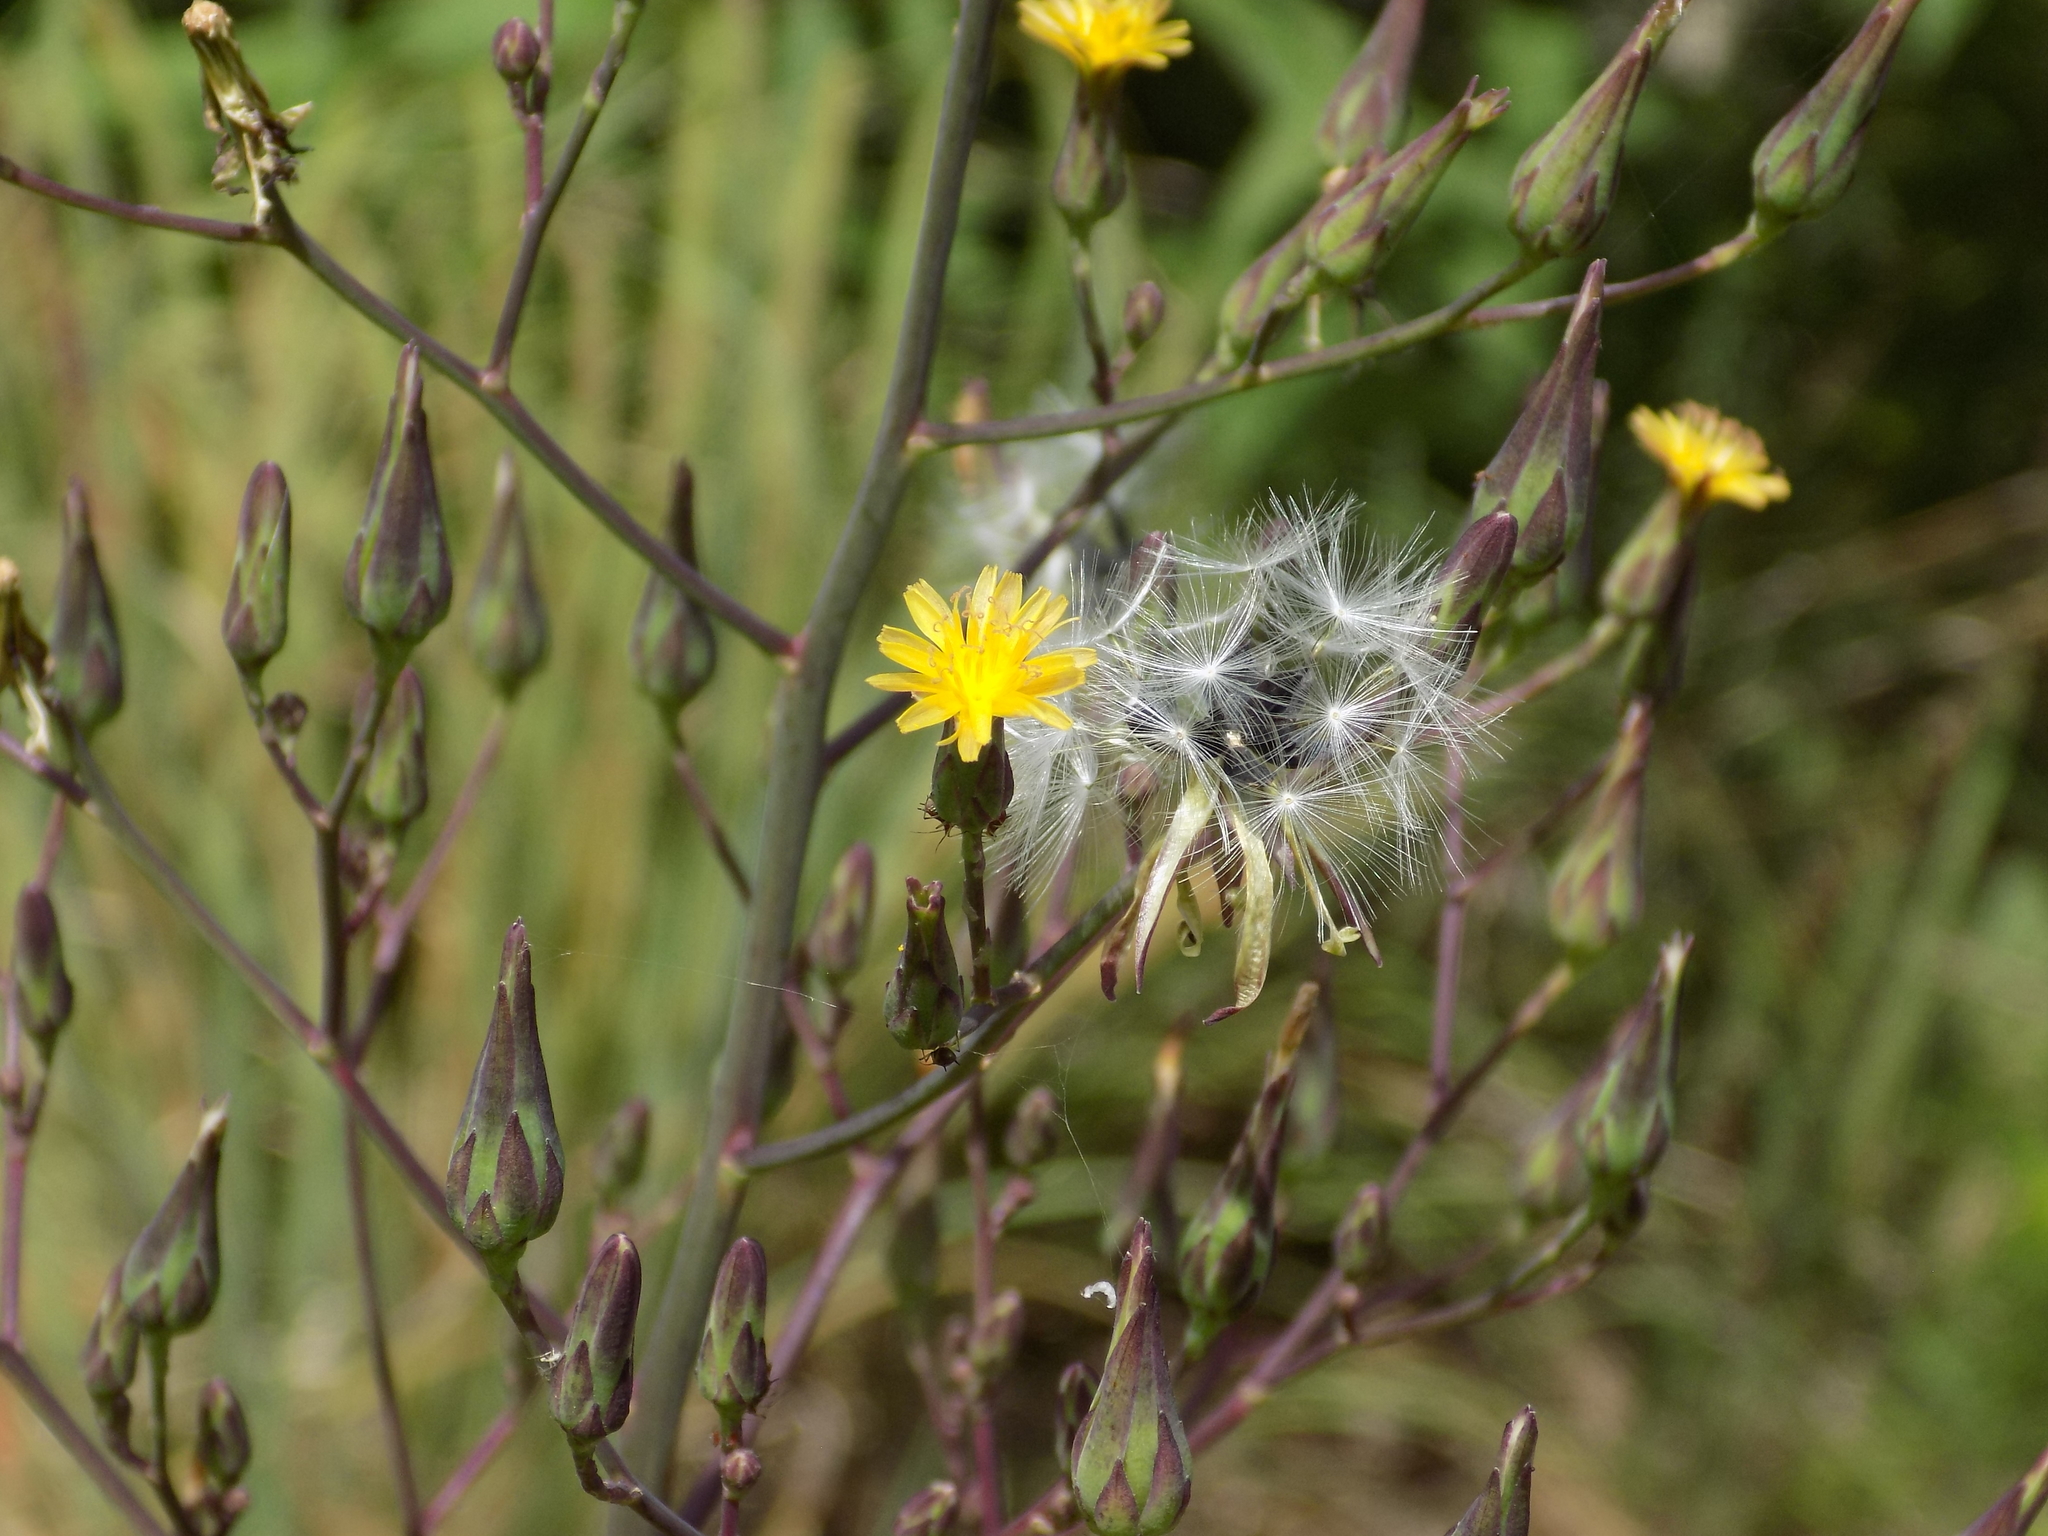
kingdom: Plantae
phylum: Tracheophyta
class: Magnoliopsida
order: Asterales
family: Asteraceae
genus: Lactuca
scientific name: Lactuca canadensis
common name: Canada lettuce
